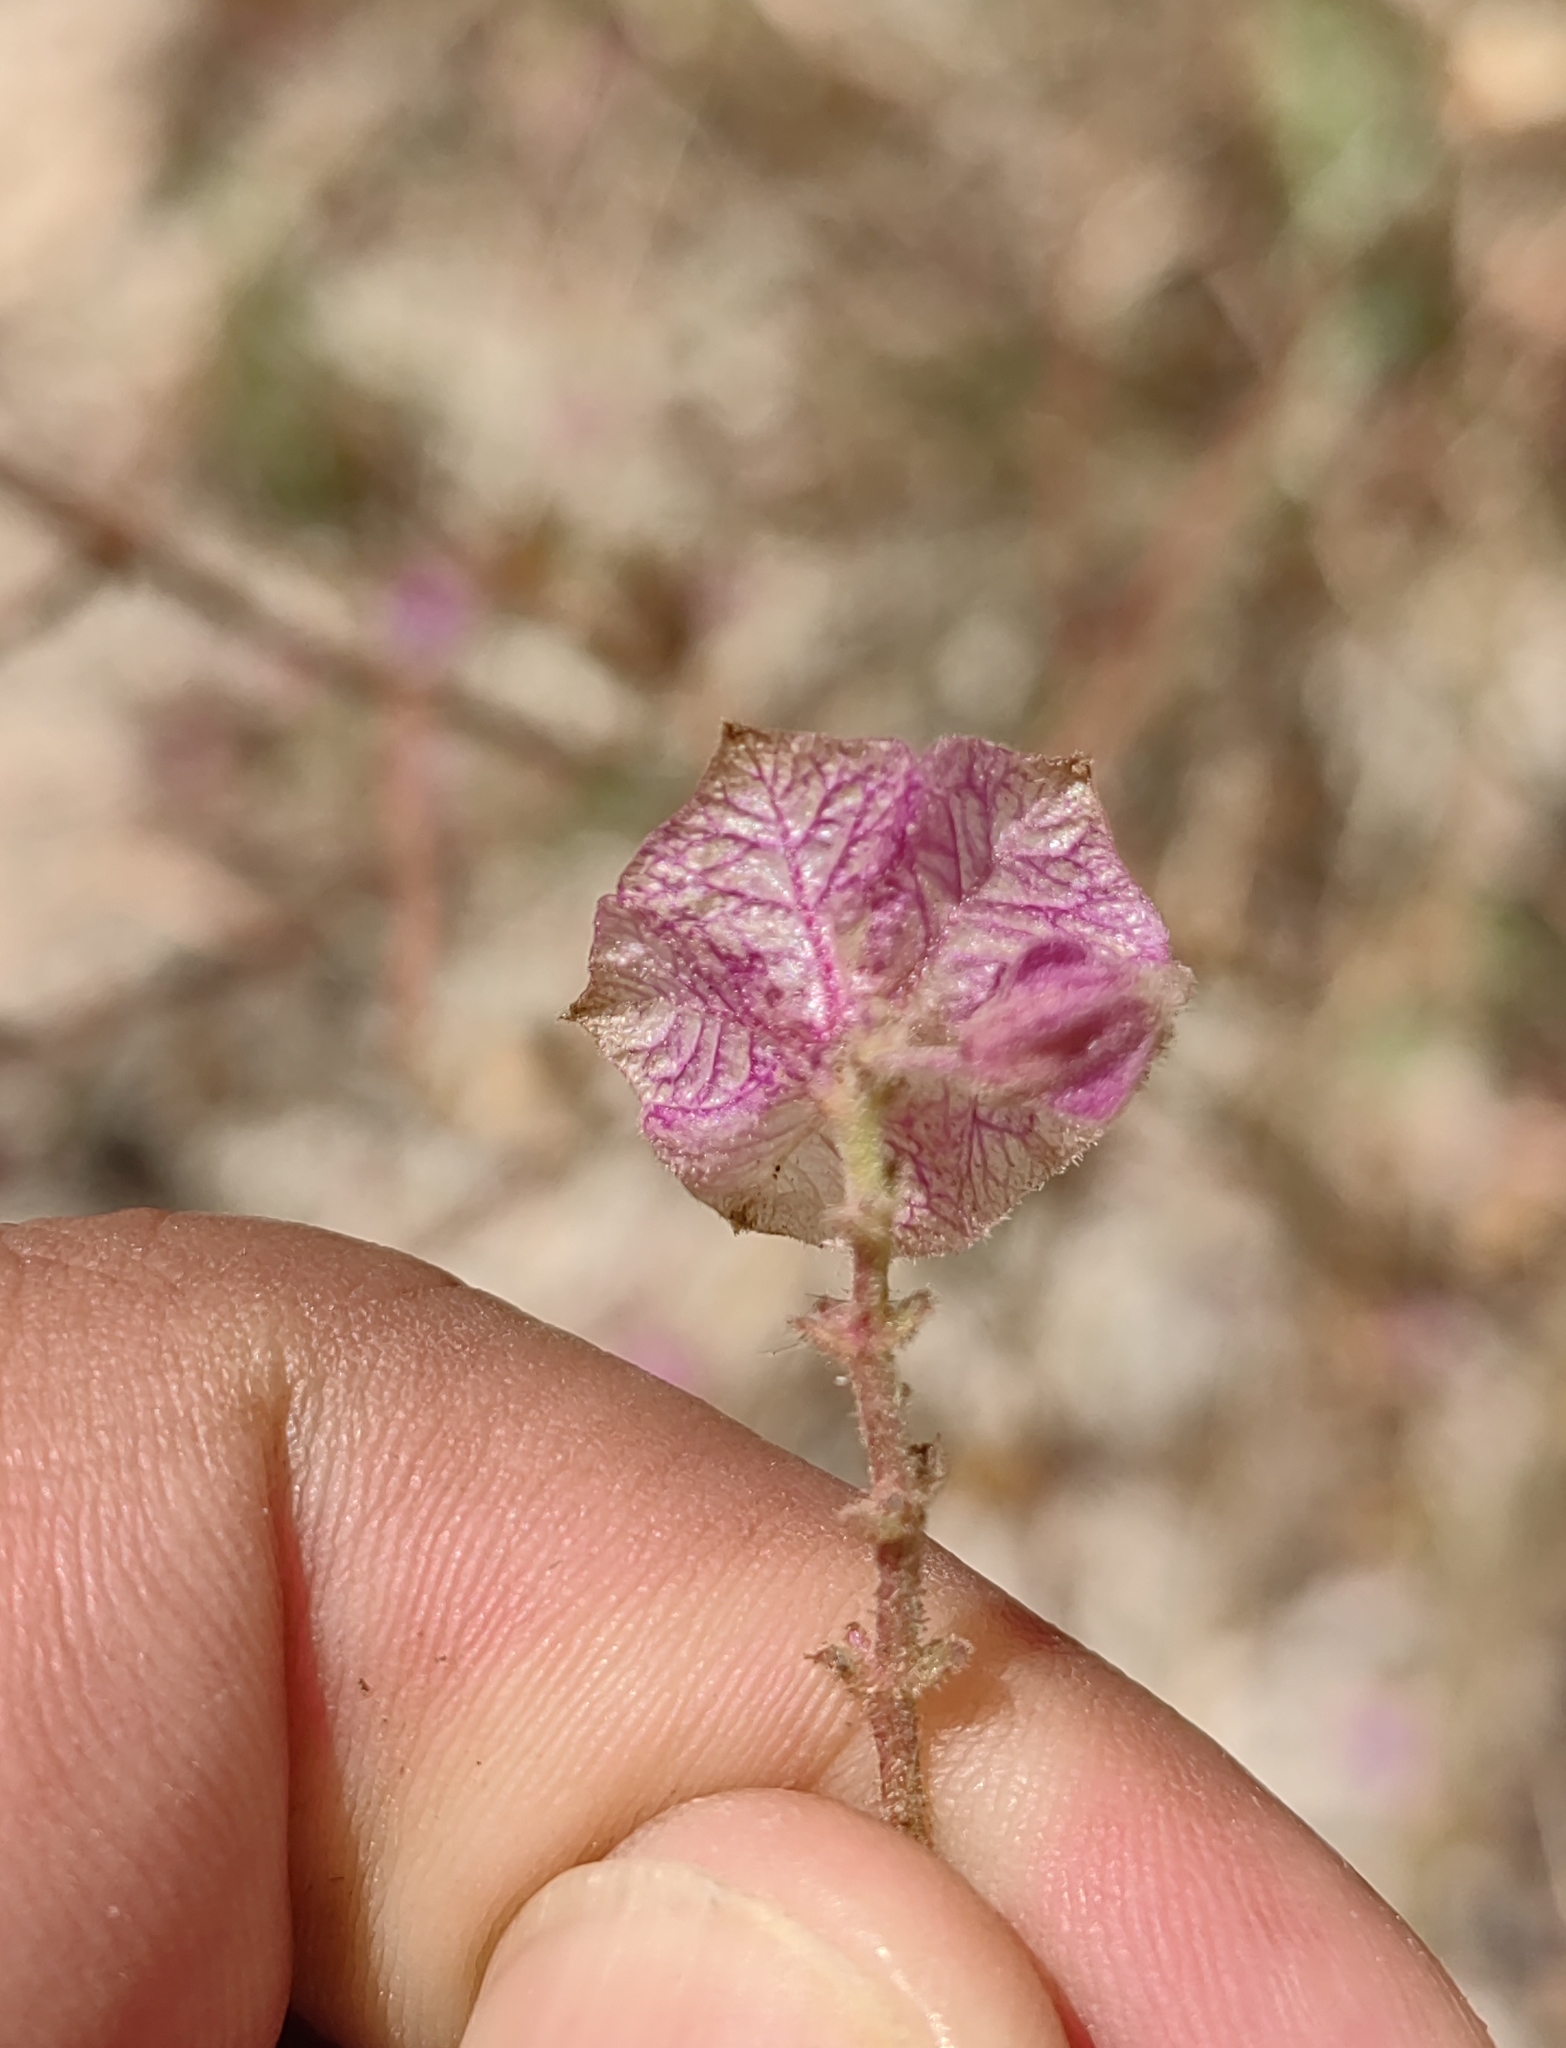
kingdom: Plantae
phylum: Tracheophyta
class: Magnoliopsida
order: Caryophyllales
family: Nyctaginaceae
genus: Mirabilis
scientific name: Mirabilis viscosa
